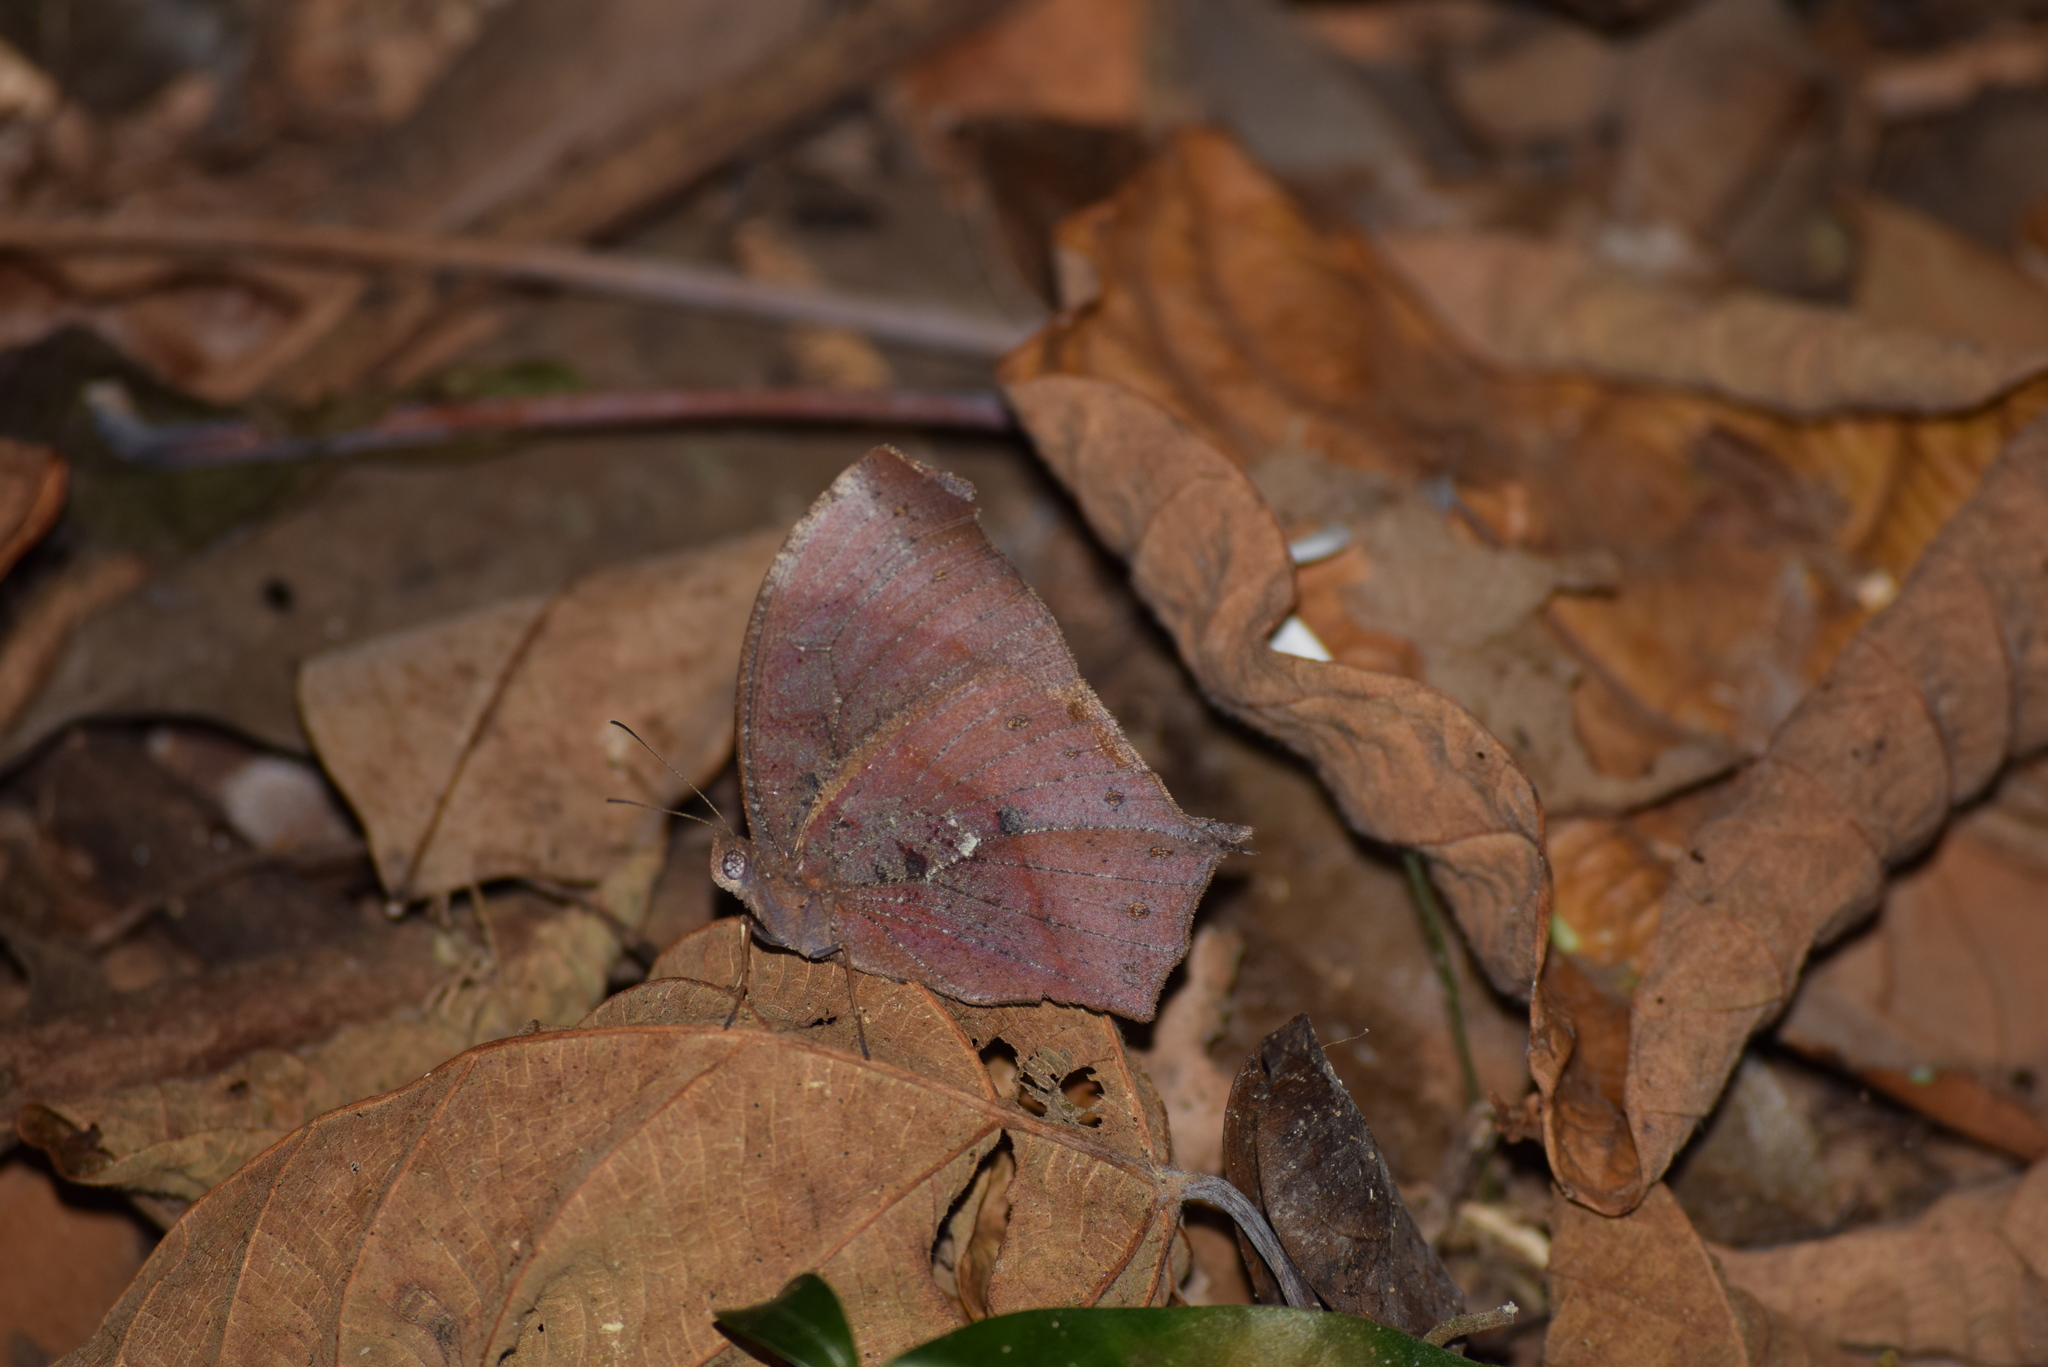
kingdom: Animalia
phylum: Arthropoda
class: Insecta
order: Lepidoptera
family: Nymphalidae
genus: Melanitis
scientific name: Melanitis zitenius
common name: Great evening brown
